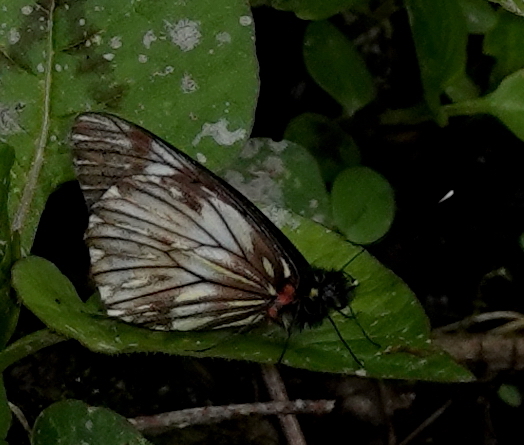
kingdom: Animalia
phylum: Arthropoda
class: Insecta
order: Lepidoptera
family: Pieridae
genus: Catasticta
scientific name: Catasticta notha
